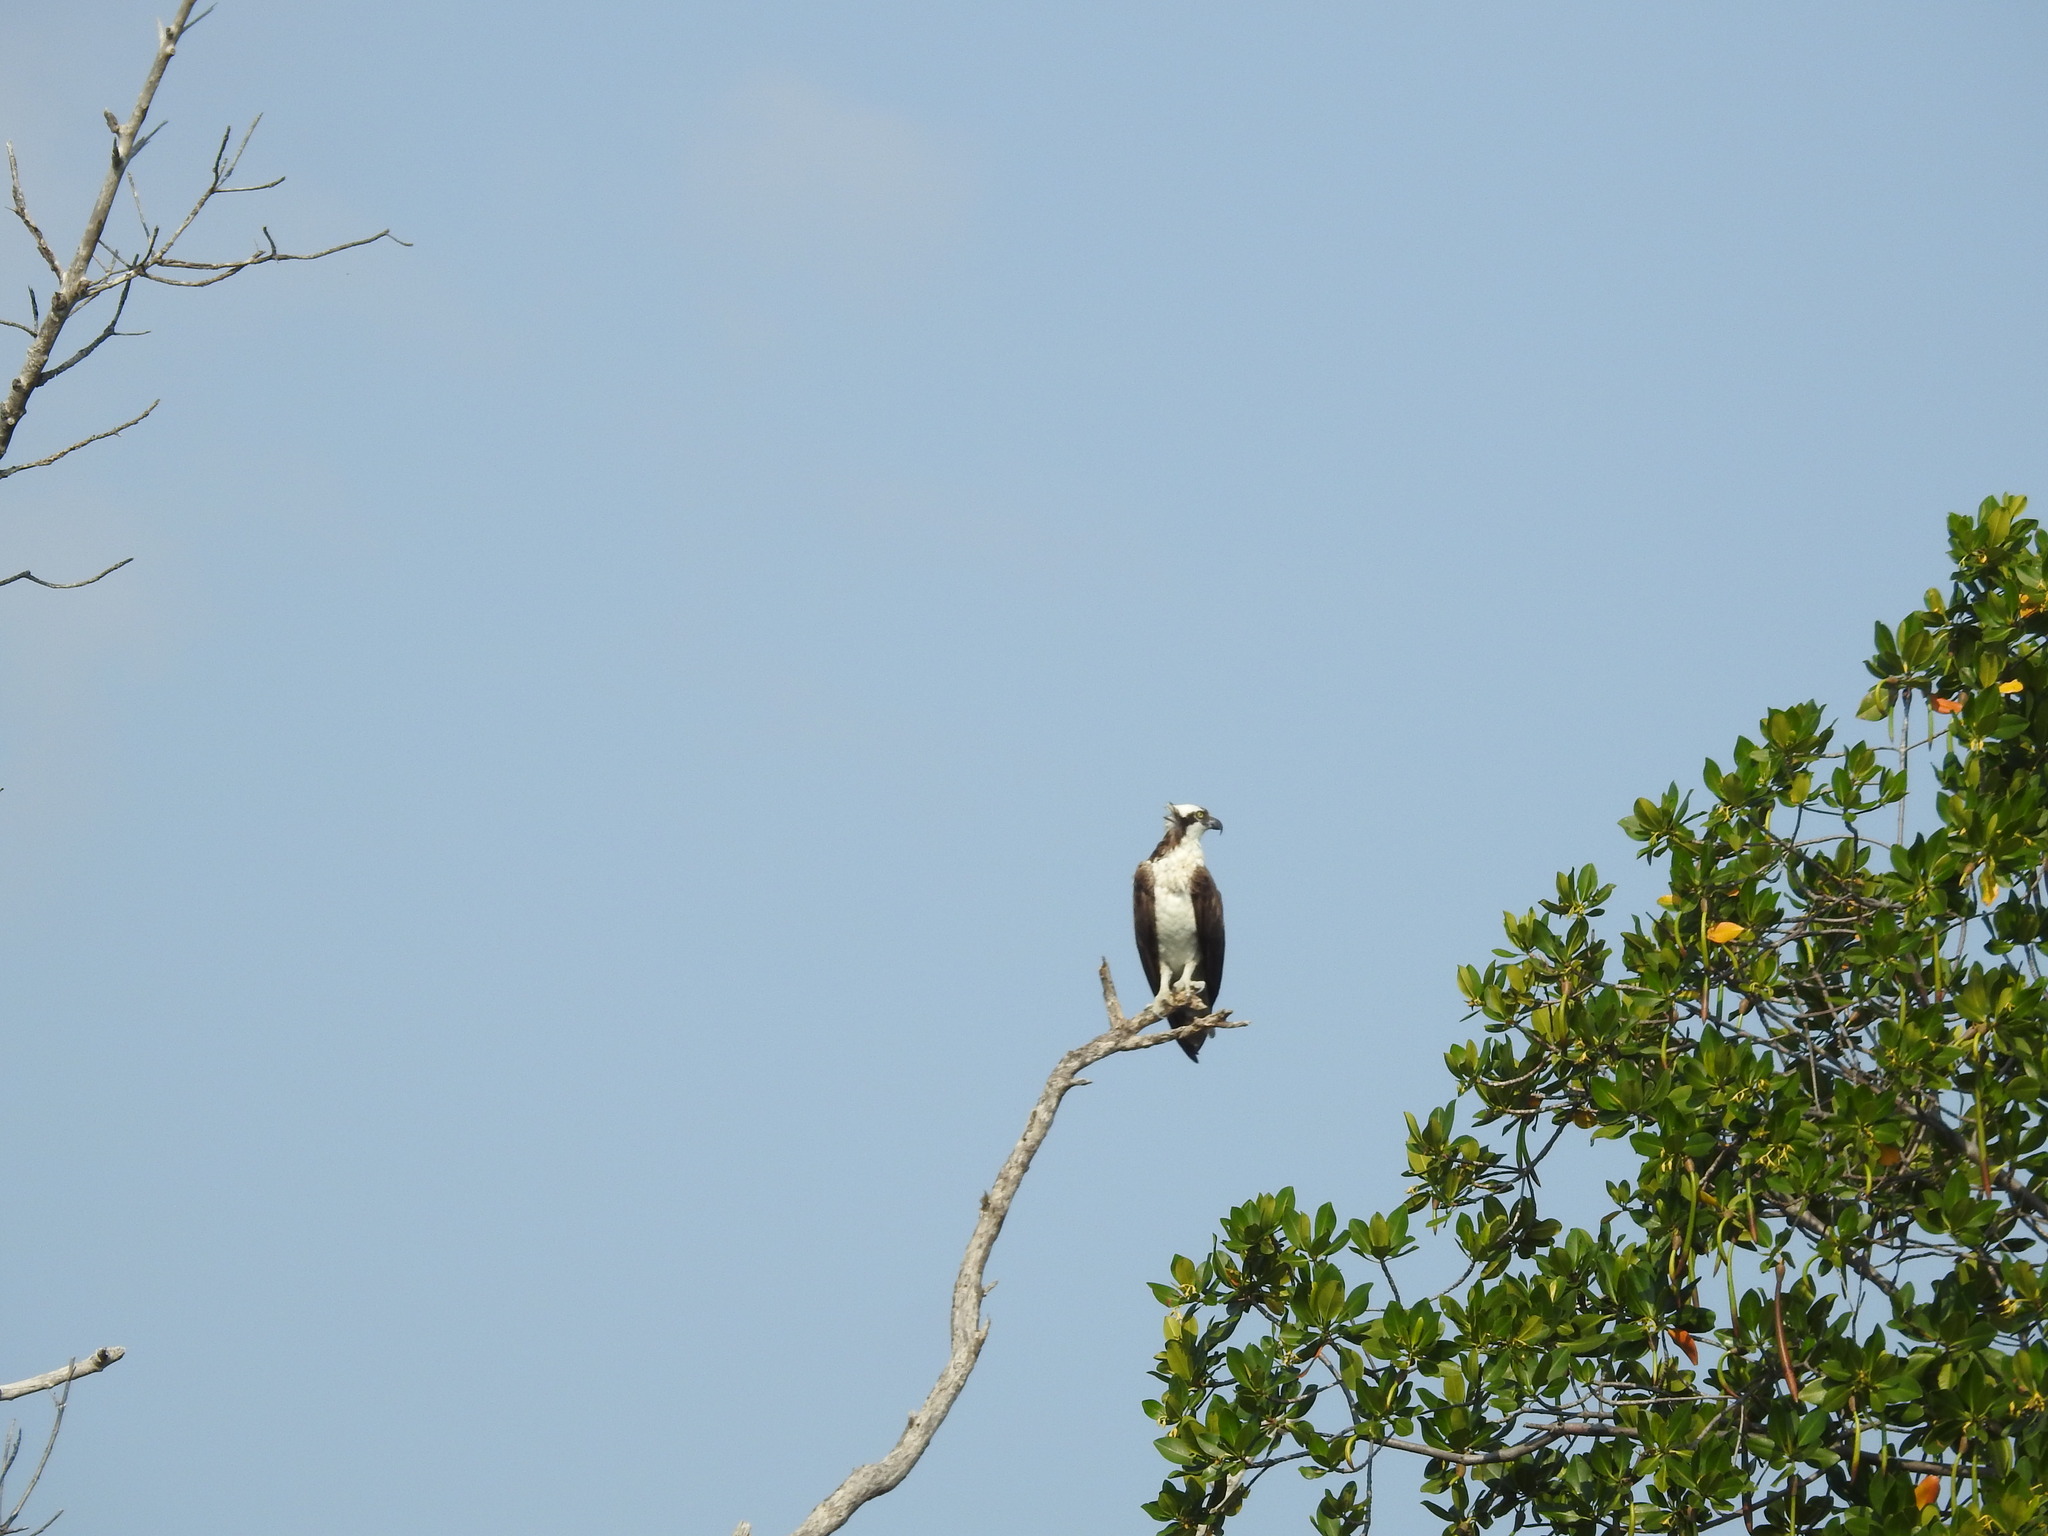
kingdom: Animalia
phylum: Chordata
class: Aves
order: Accipitriformes
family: Pandionidae
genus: Pandion
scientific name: Pandion haliaetus
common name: Osprey
